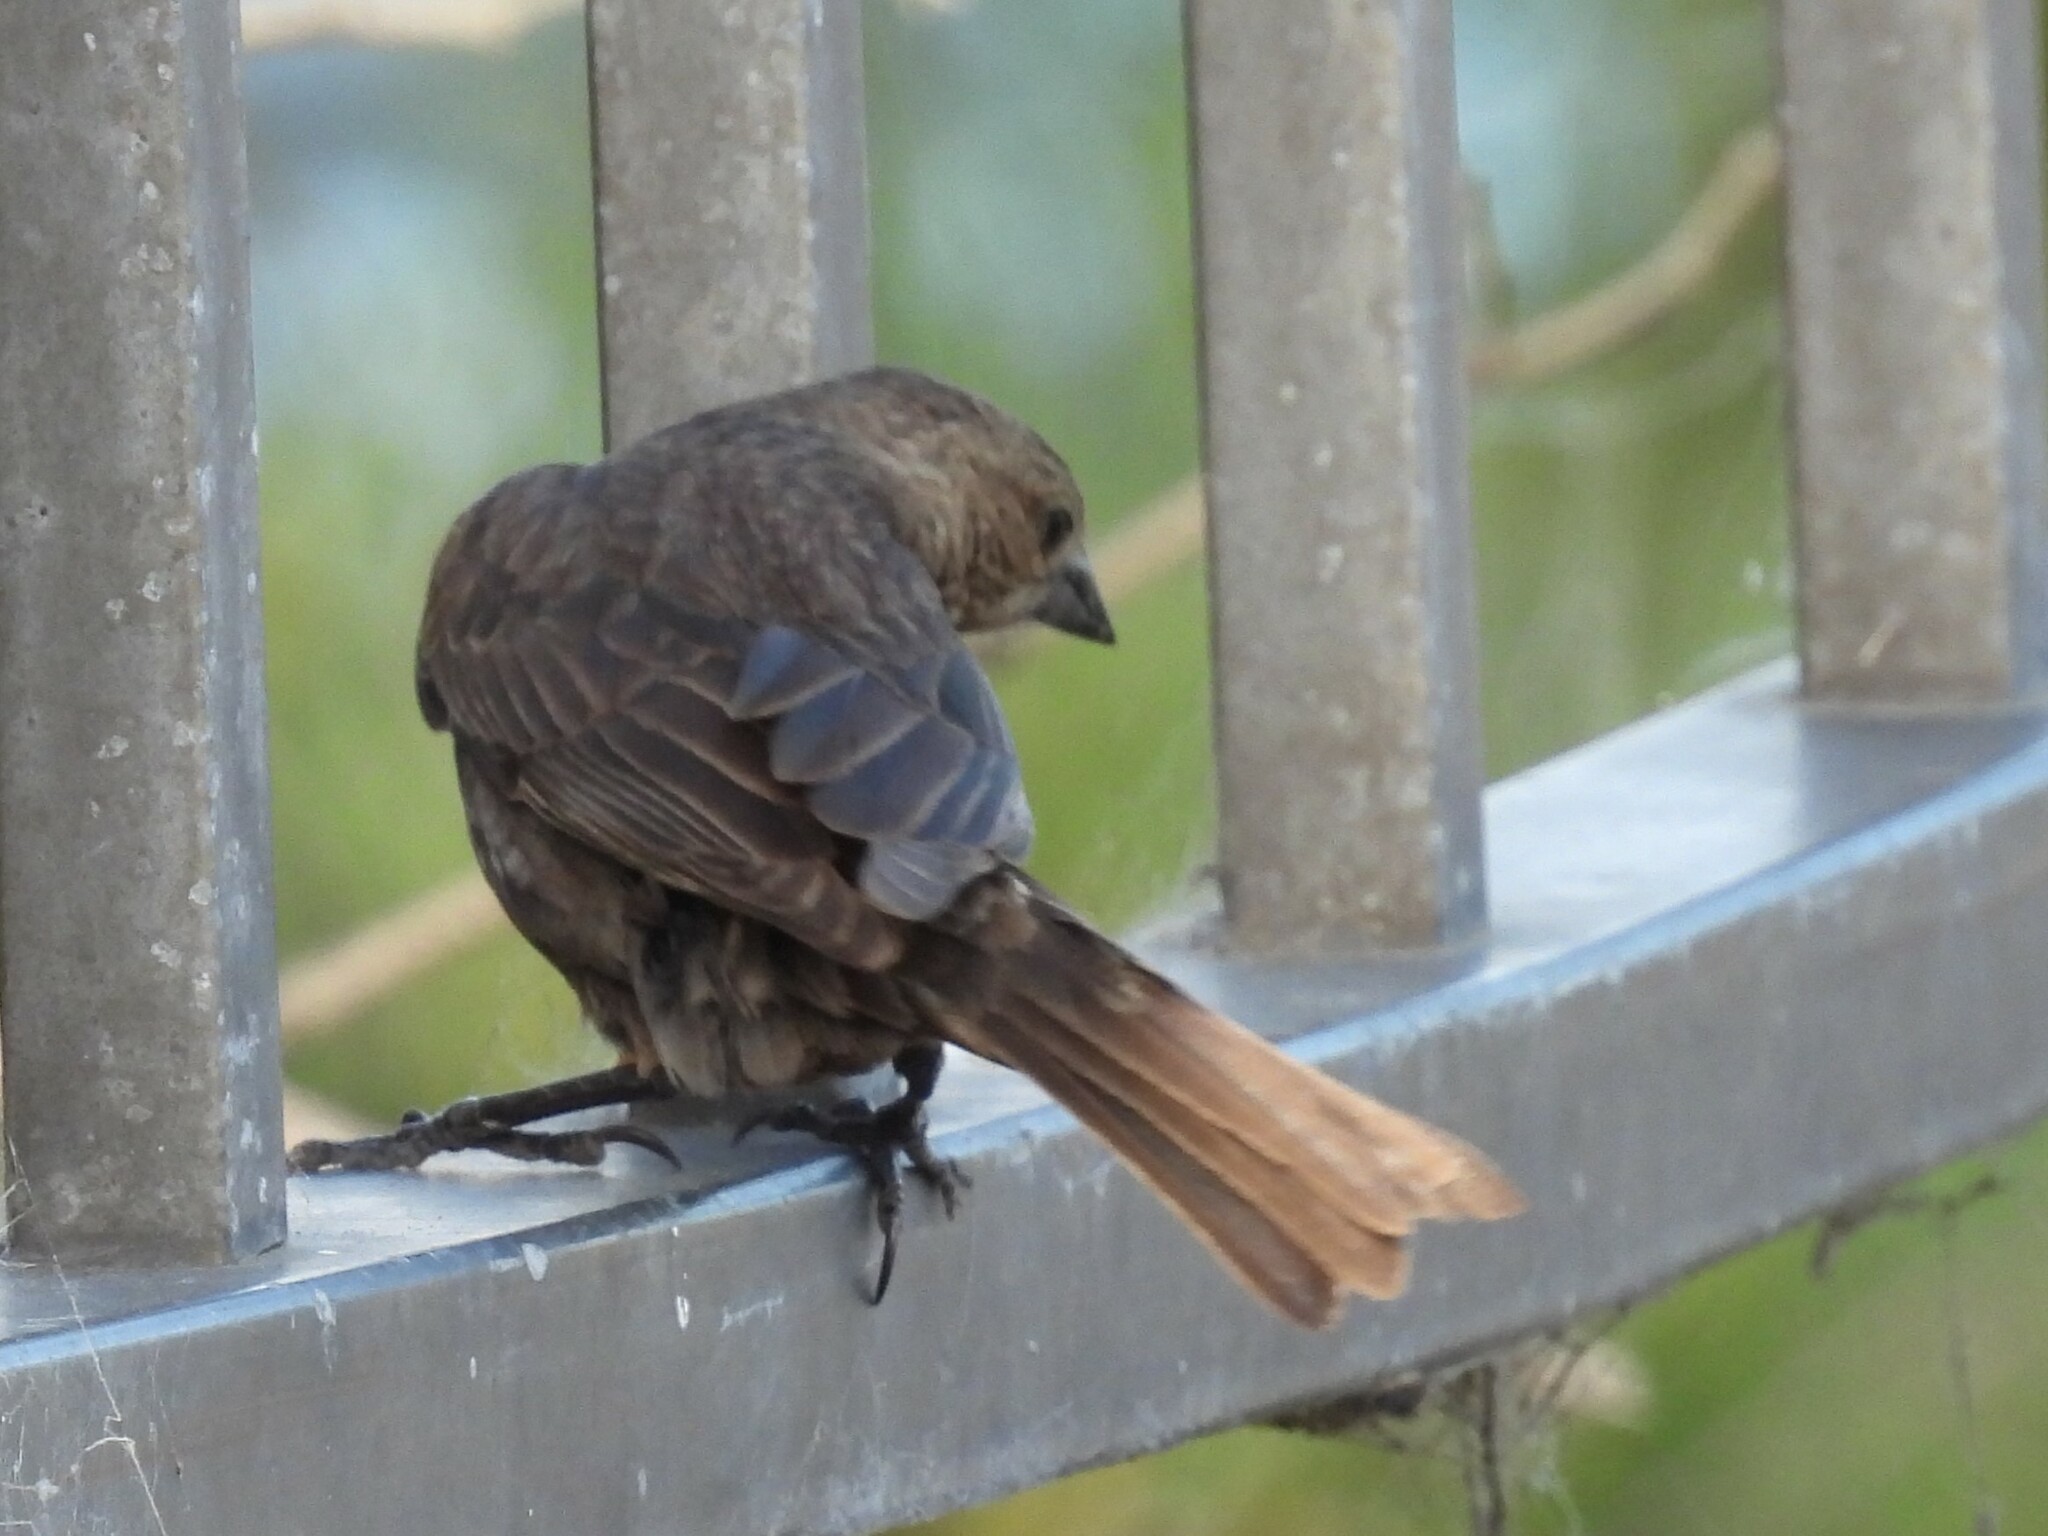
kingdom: Animalia
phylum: Chordata
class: Aves
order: Passeriformes
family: Icteridae
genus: Molothrus
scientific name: Molothrus ater
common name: Brown-headed cowbird
